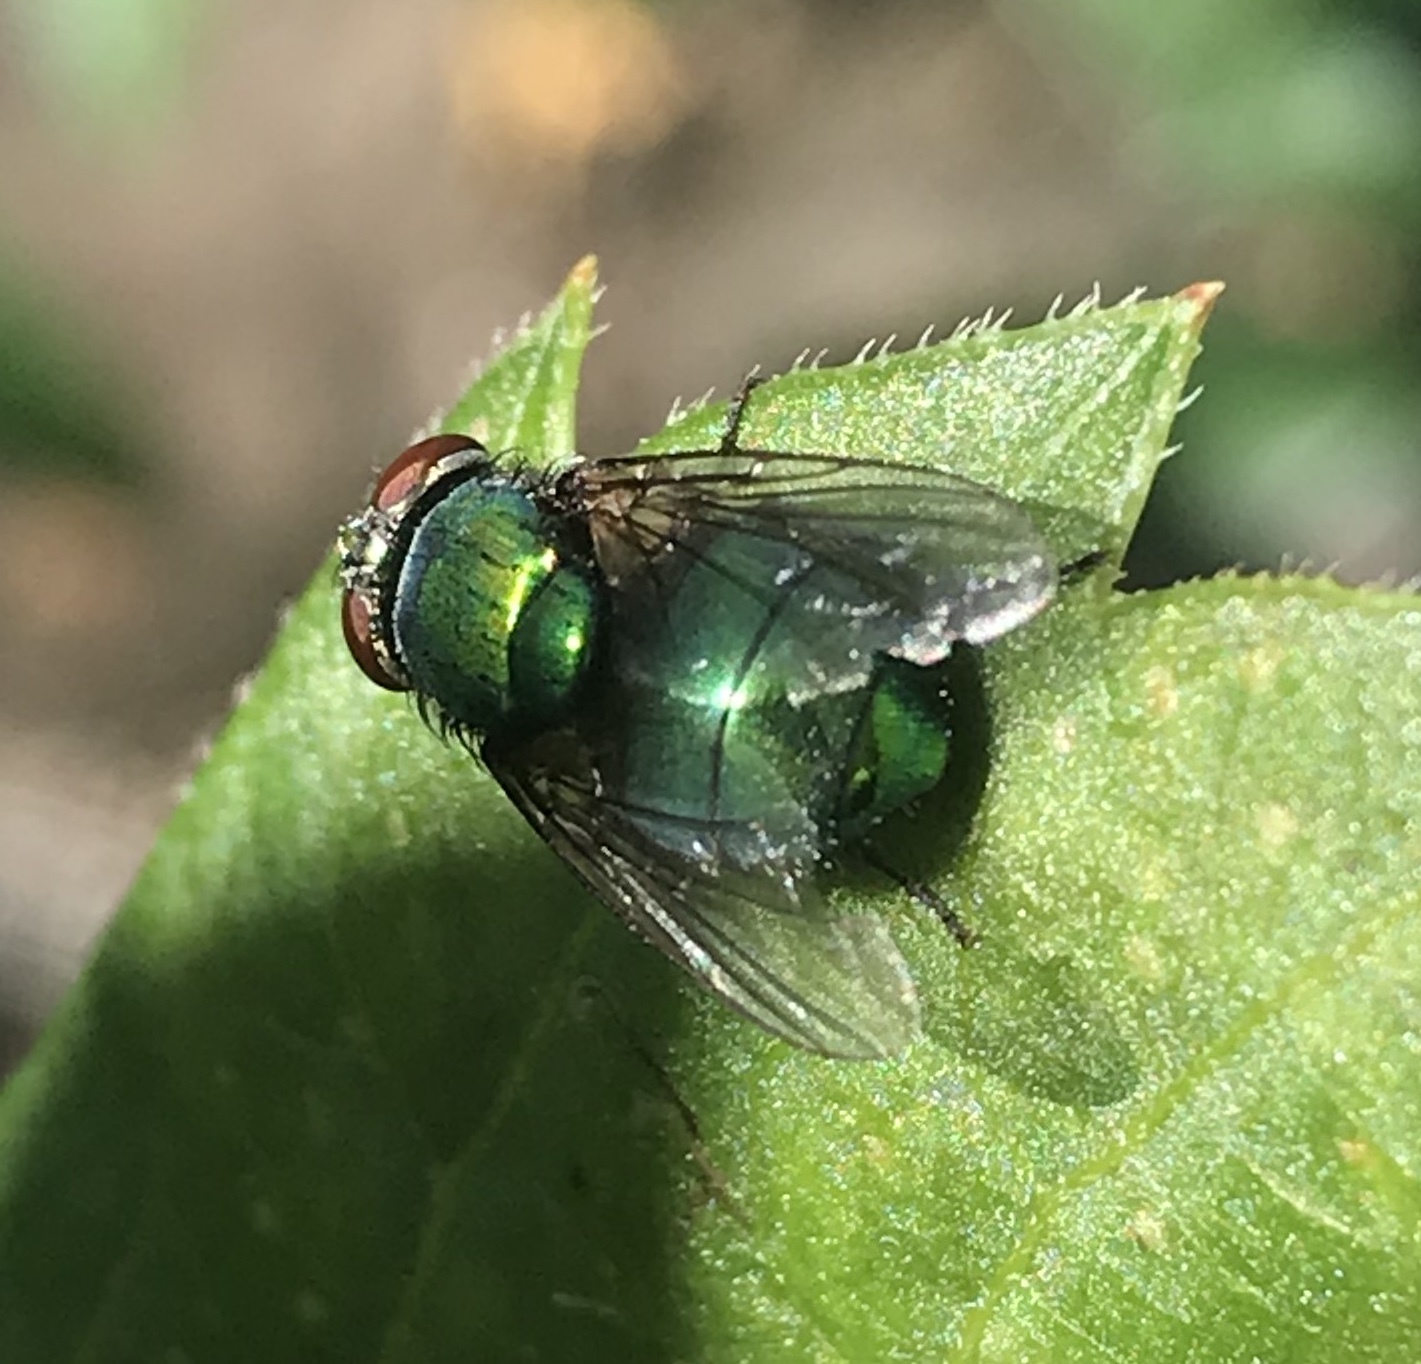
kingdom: Animalia
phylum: Arthropoda
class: Insecta
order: Diptera
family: Calliphoridae
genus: Lucilia
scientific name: Lucilia sericata
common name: Blow fly
